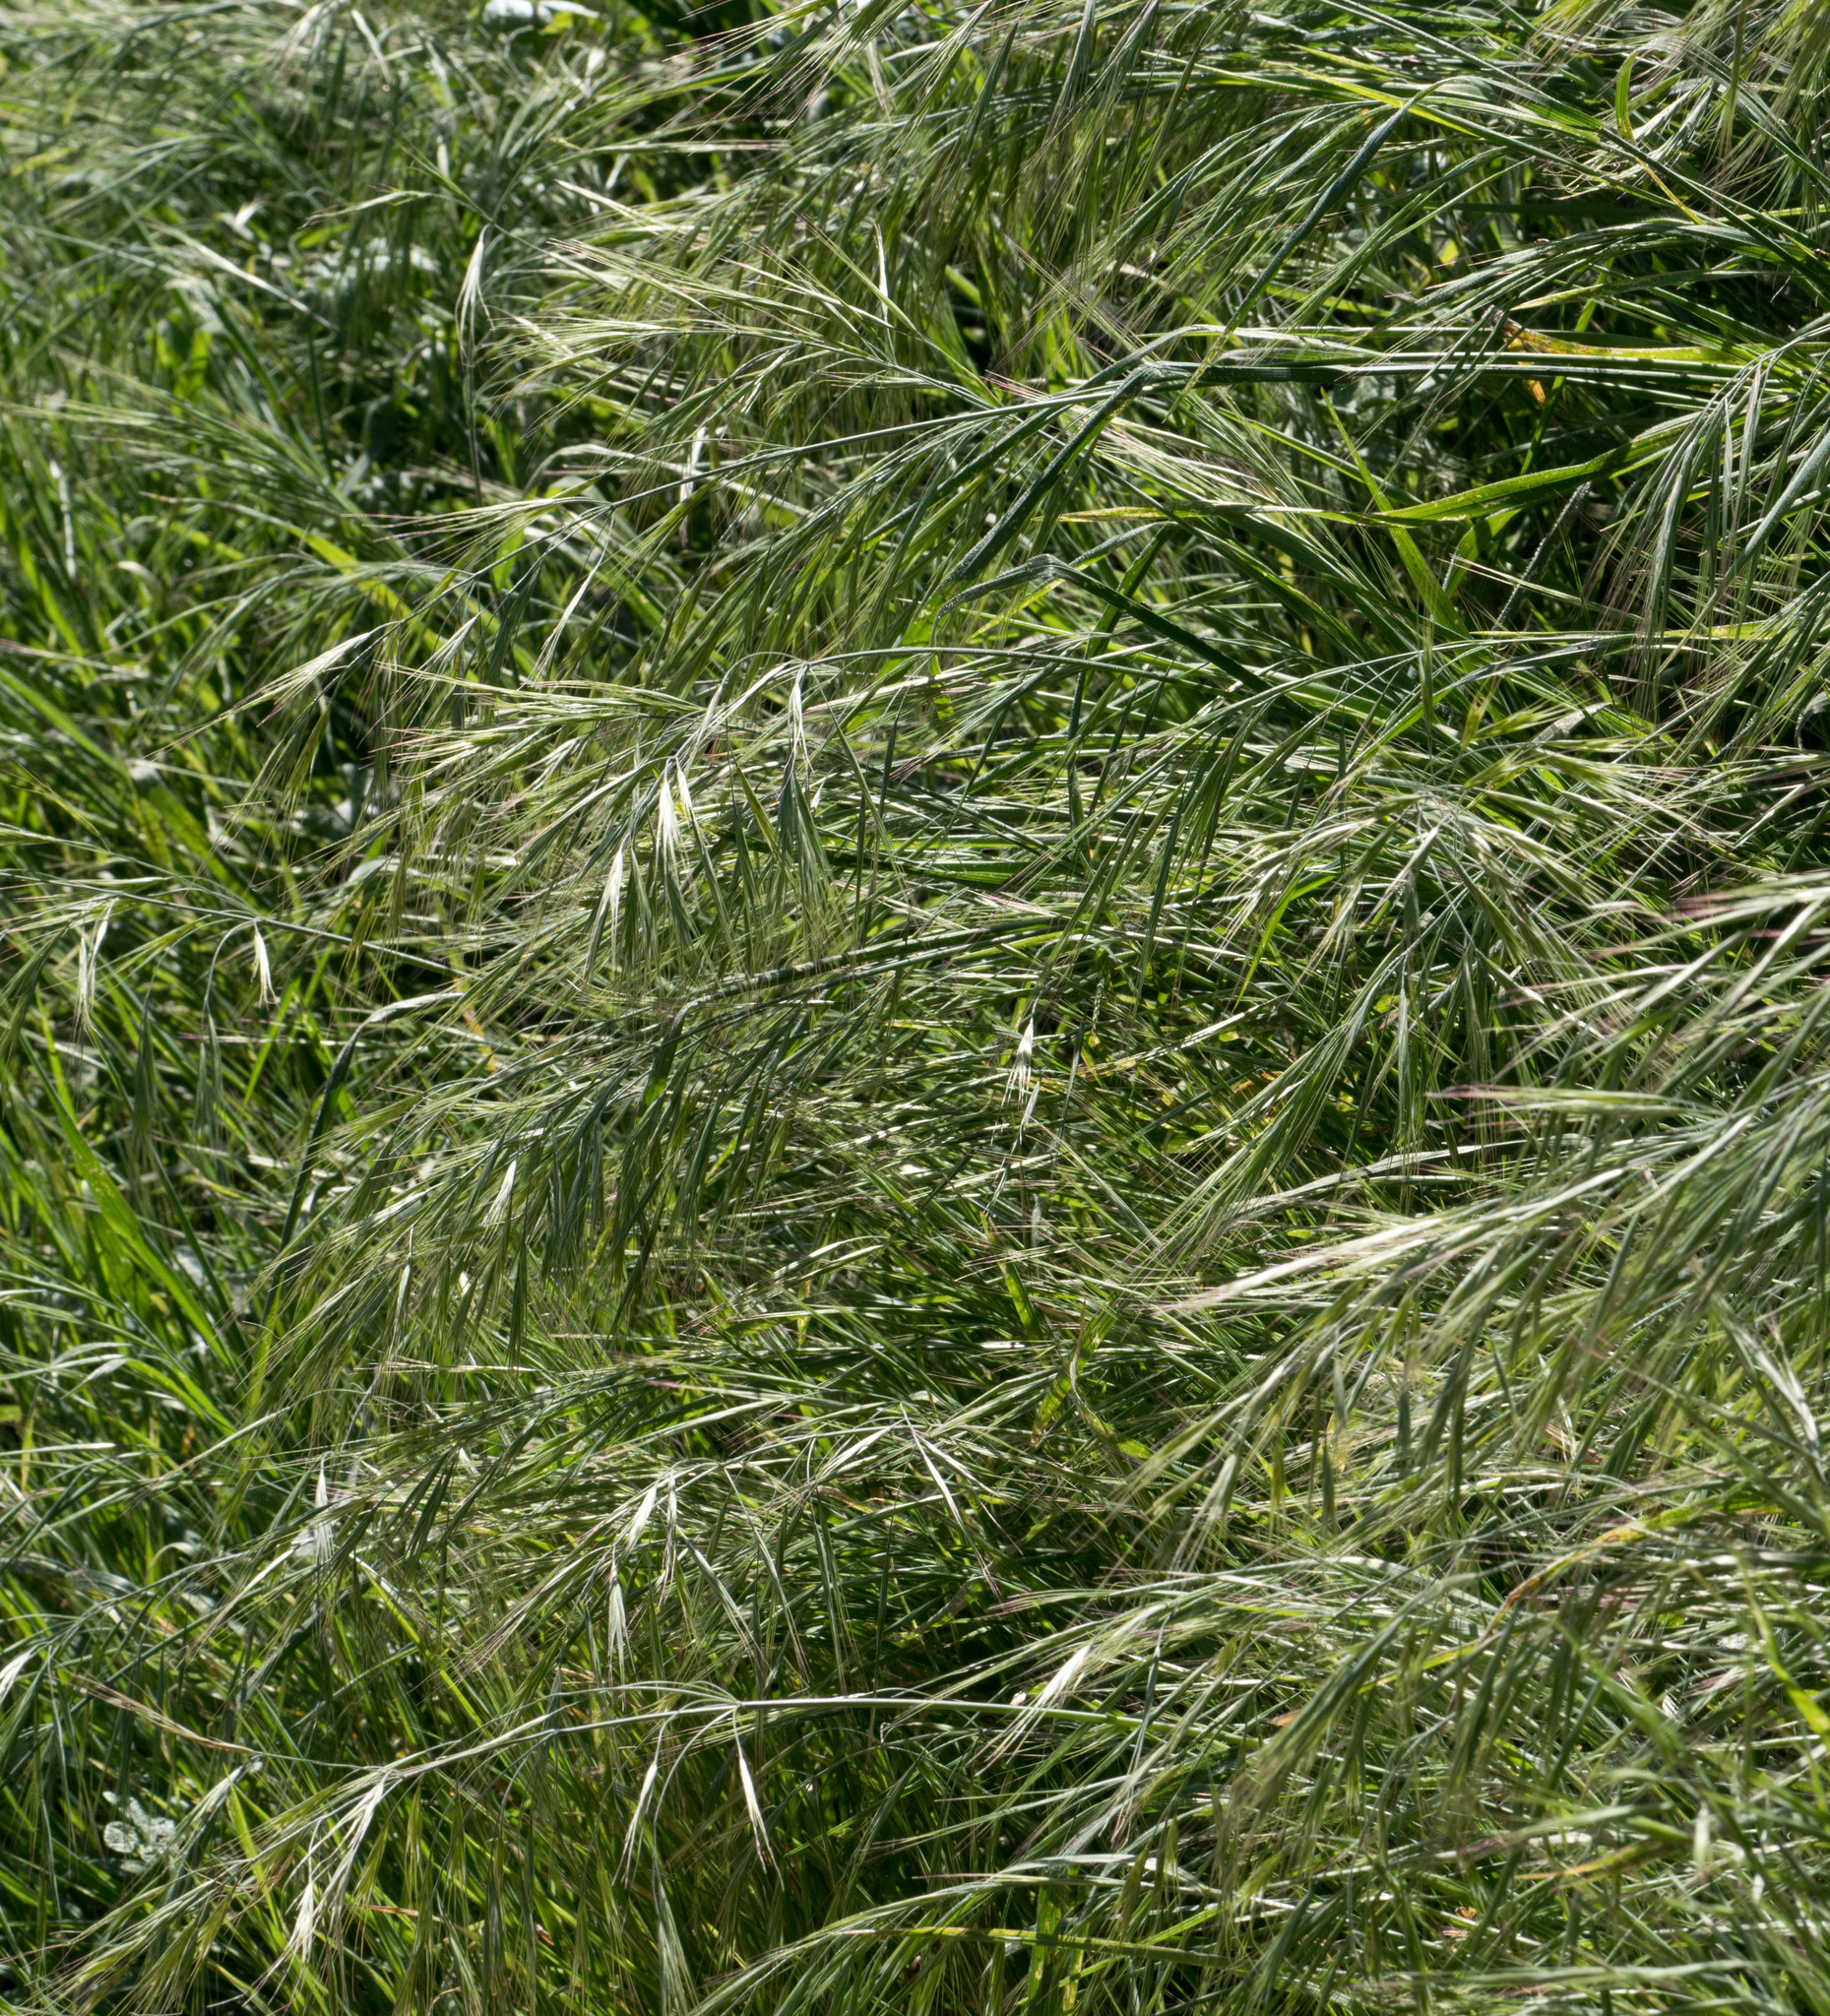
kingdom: Plantae
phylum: Tracheophyta
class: Liliopsida
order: Poales
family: Poaceae
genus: Bromus
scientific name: Bromus diandrus
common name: Ripgut brome
